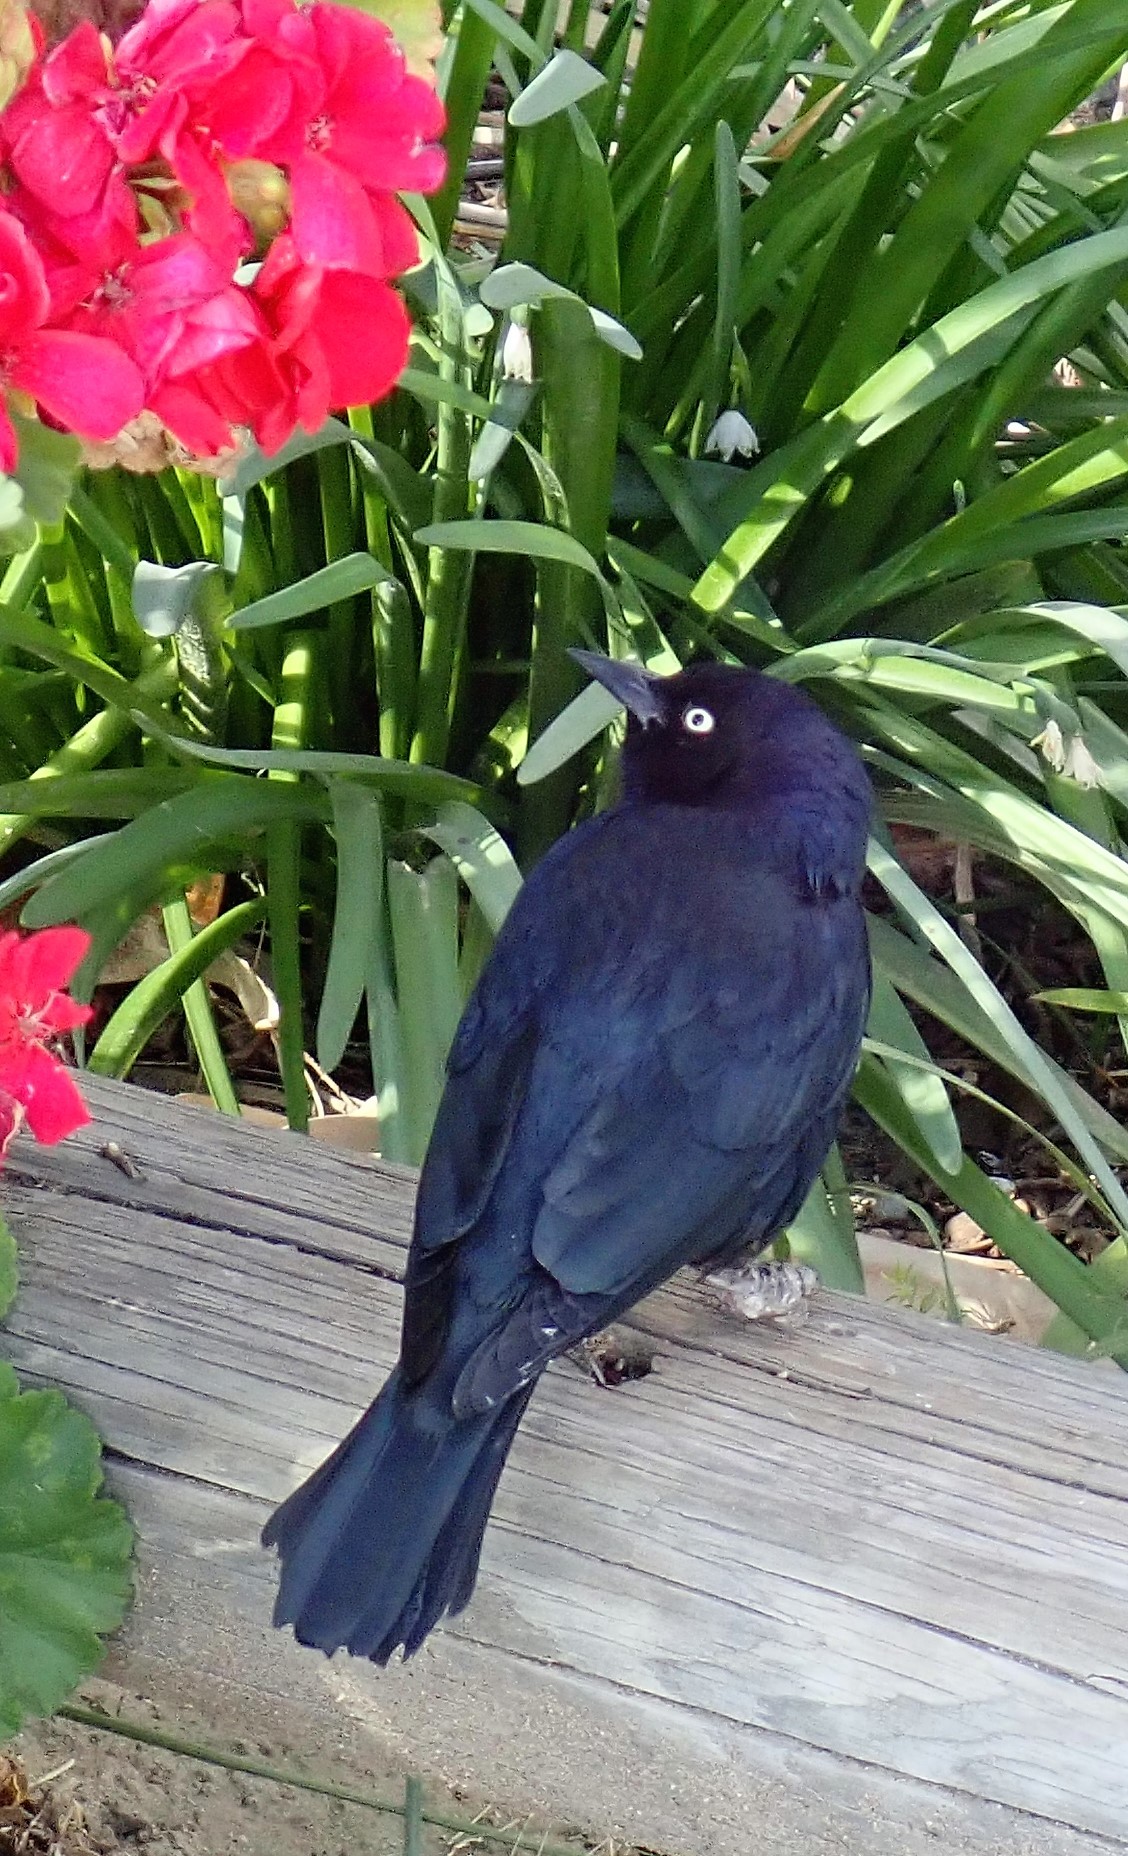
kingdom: Animalia
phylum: Chordata
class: Aves
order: Passeriformes
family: Icteridae
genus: Euphagus
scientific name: Euphagus cyanocephalus
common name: Brewer's blackbird
